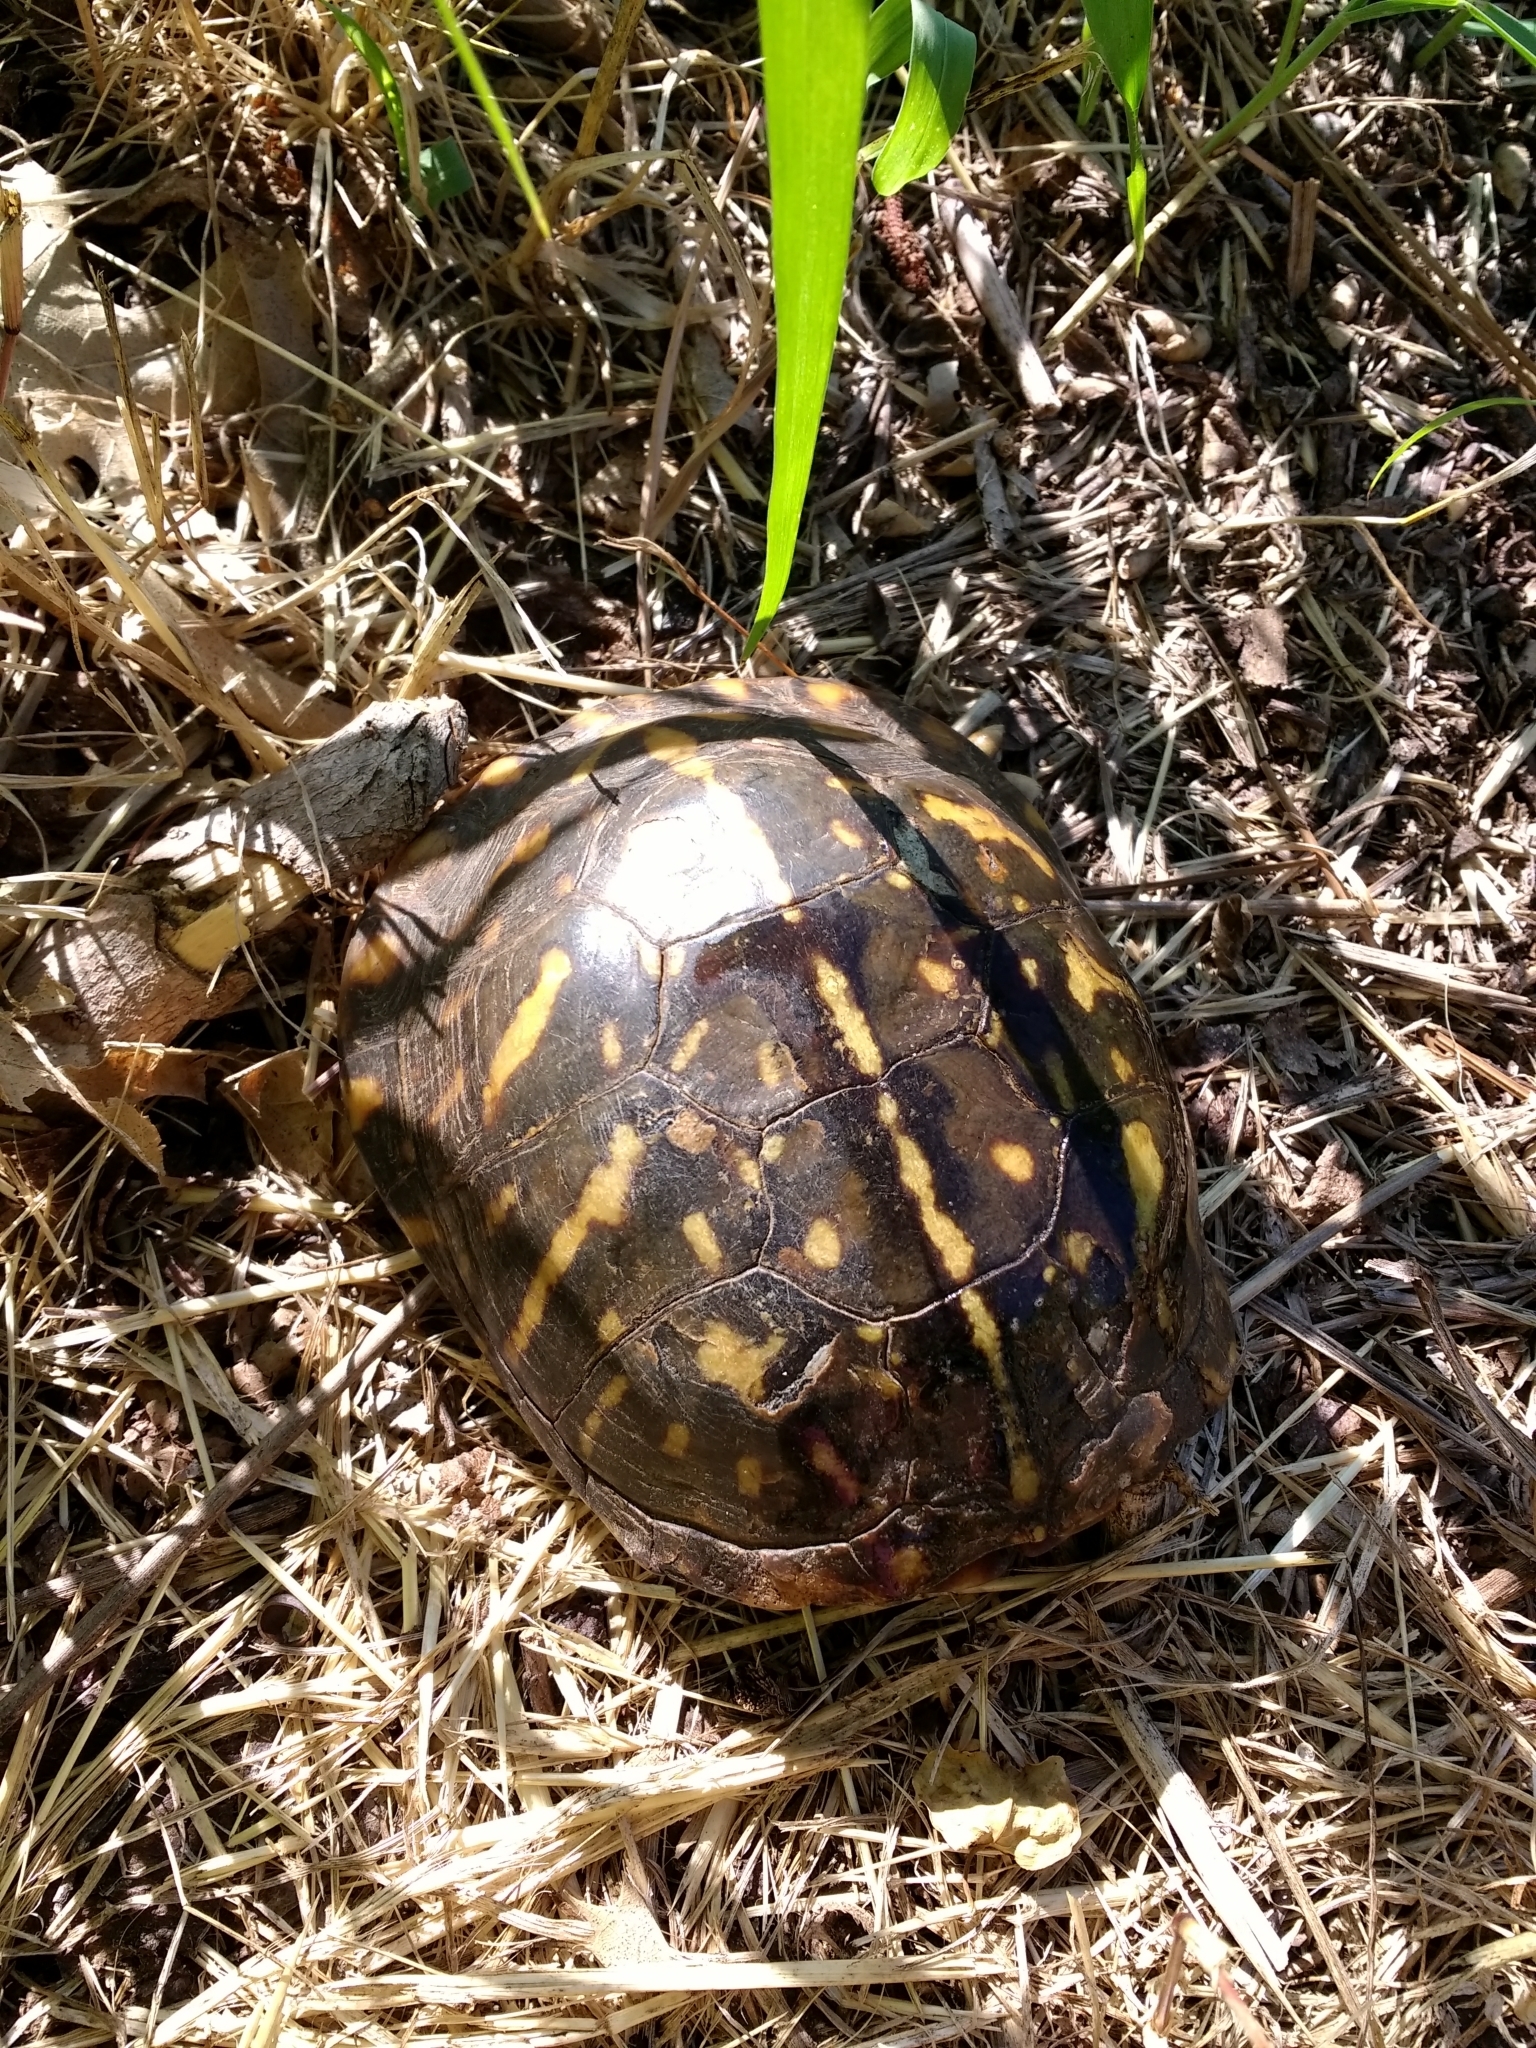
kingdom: Animalia
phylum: Chordata
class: Testudines
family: Emydidae
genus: Terrapene
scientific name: Terrapene ornata
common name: Western box turtle
